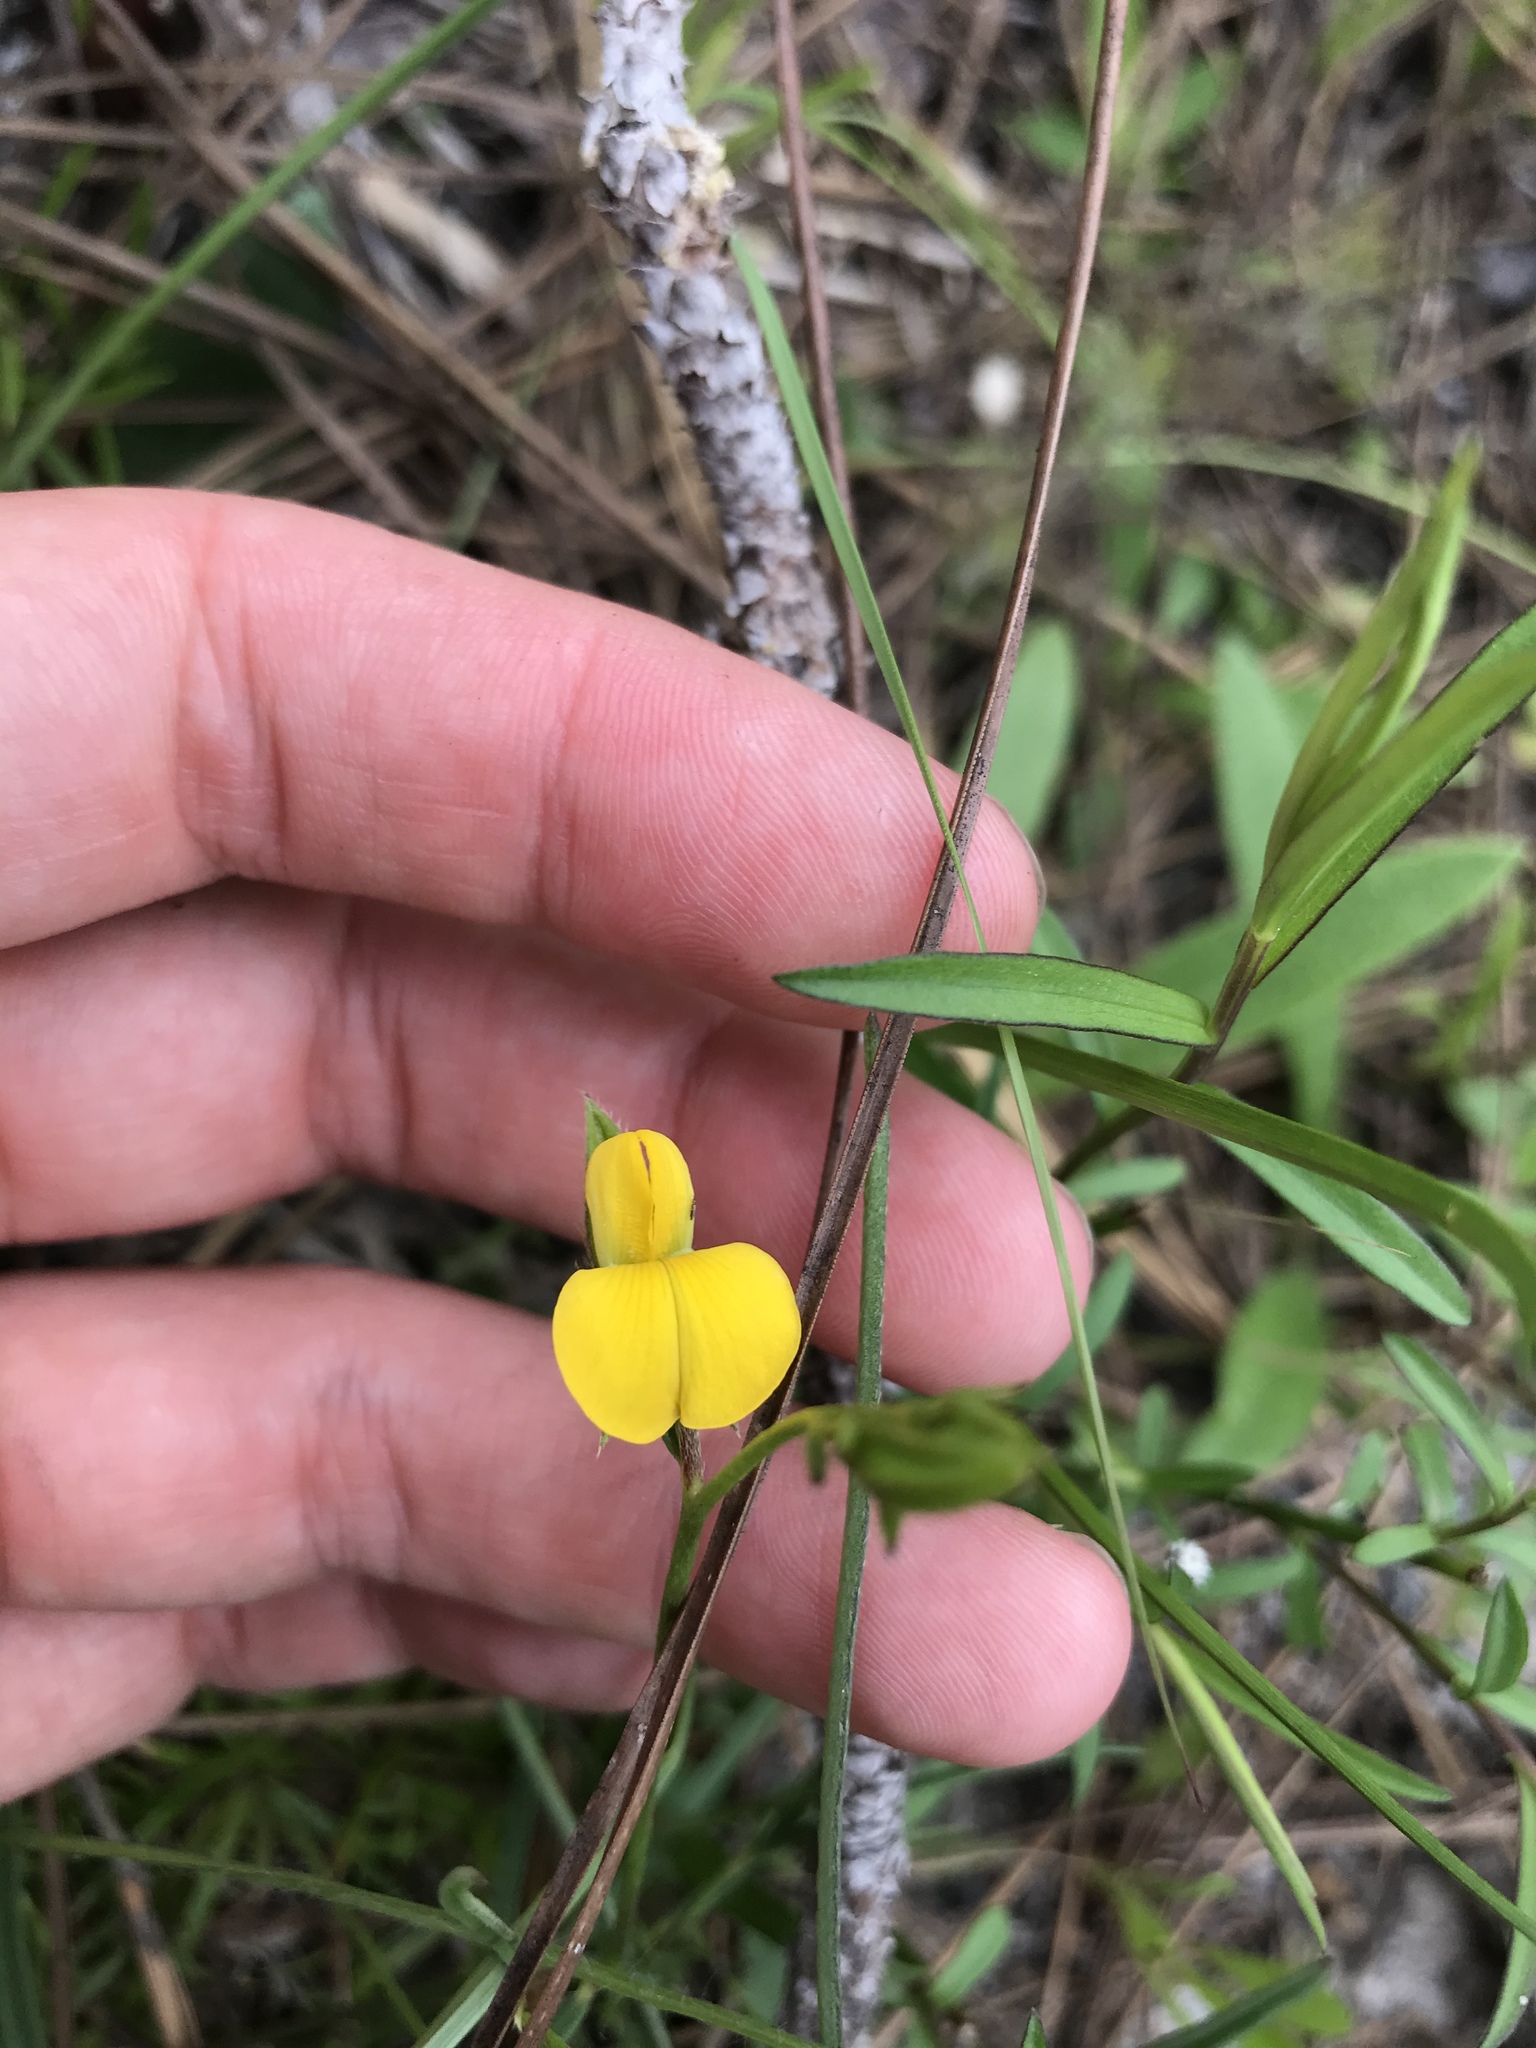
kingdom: Plantae
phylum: Tracheophyta
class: Magnoliopsida
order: Fabales
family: Fabaceae
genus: Crotalaria
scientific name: Crotalaria purshii
